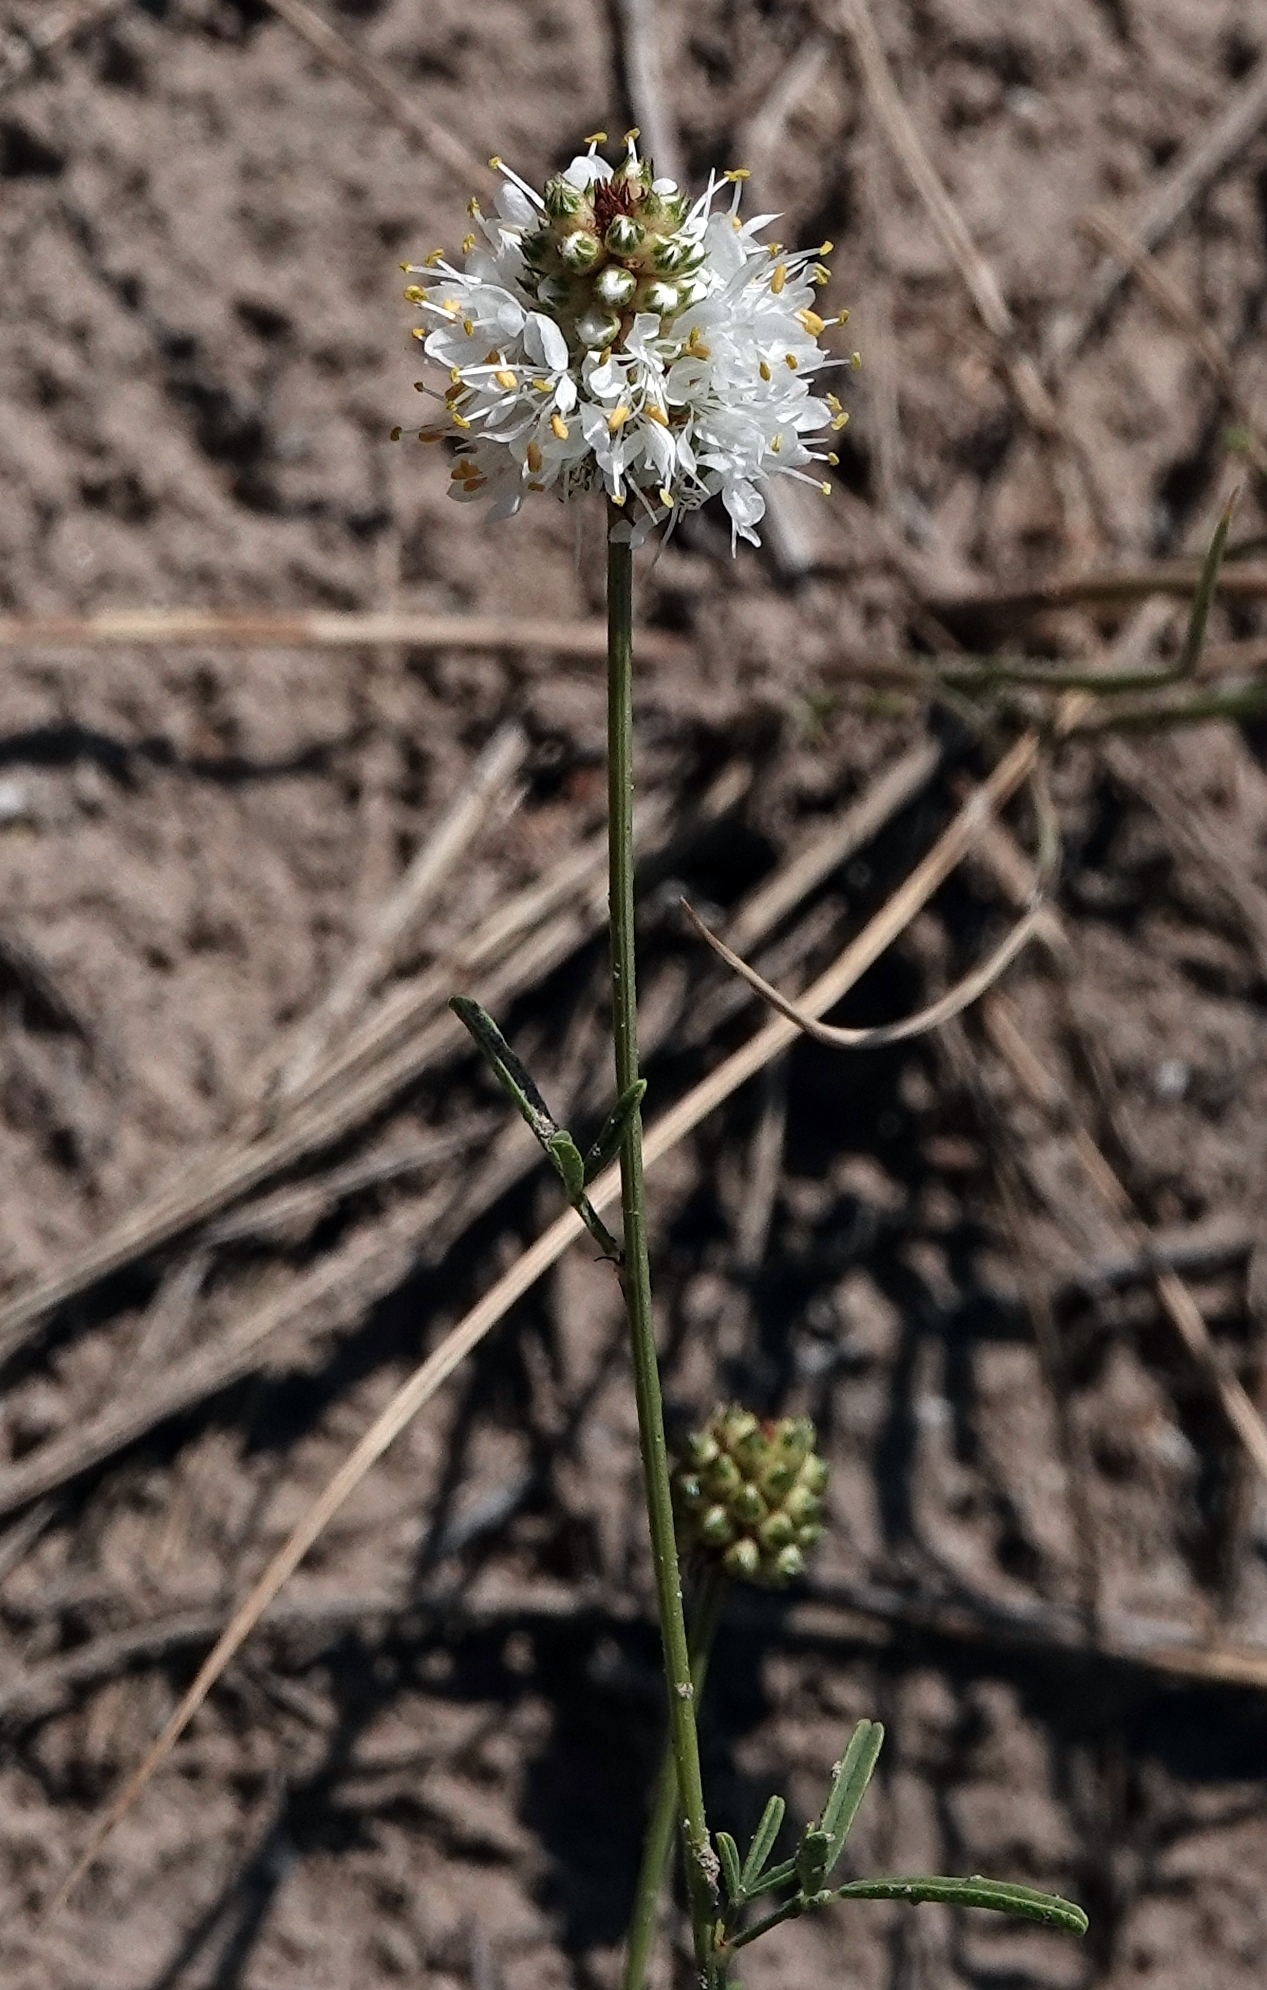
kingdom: Plantae
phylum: Tracheophyta
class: Magnoliopsida
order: Fabales
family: Fabaceae
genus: Dalea
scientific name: Dalea multiflora
